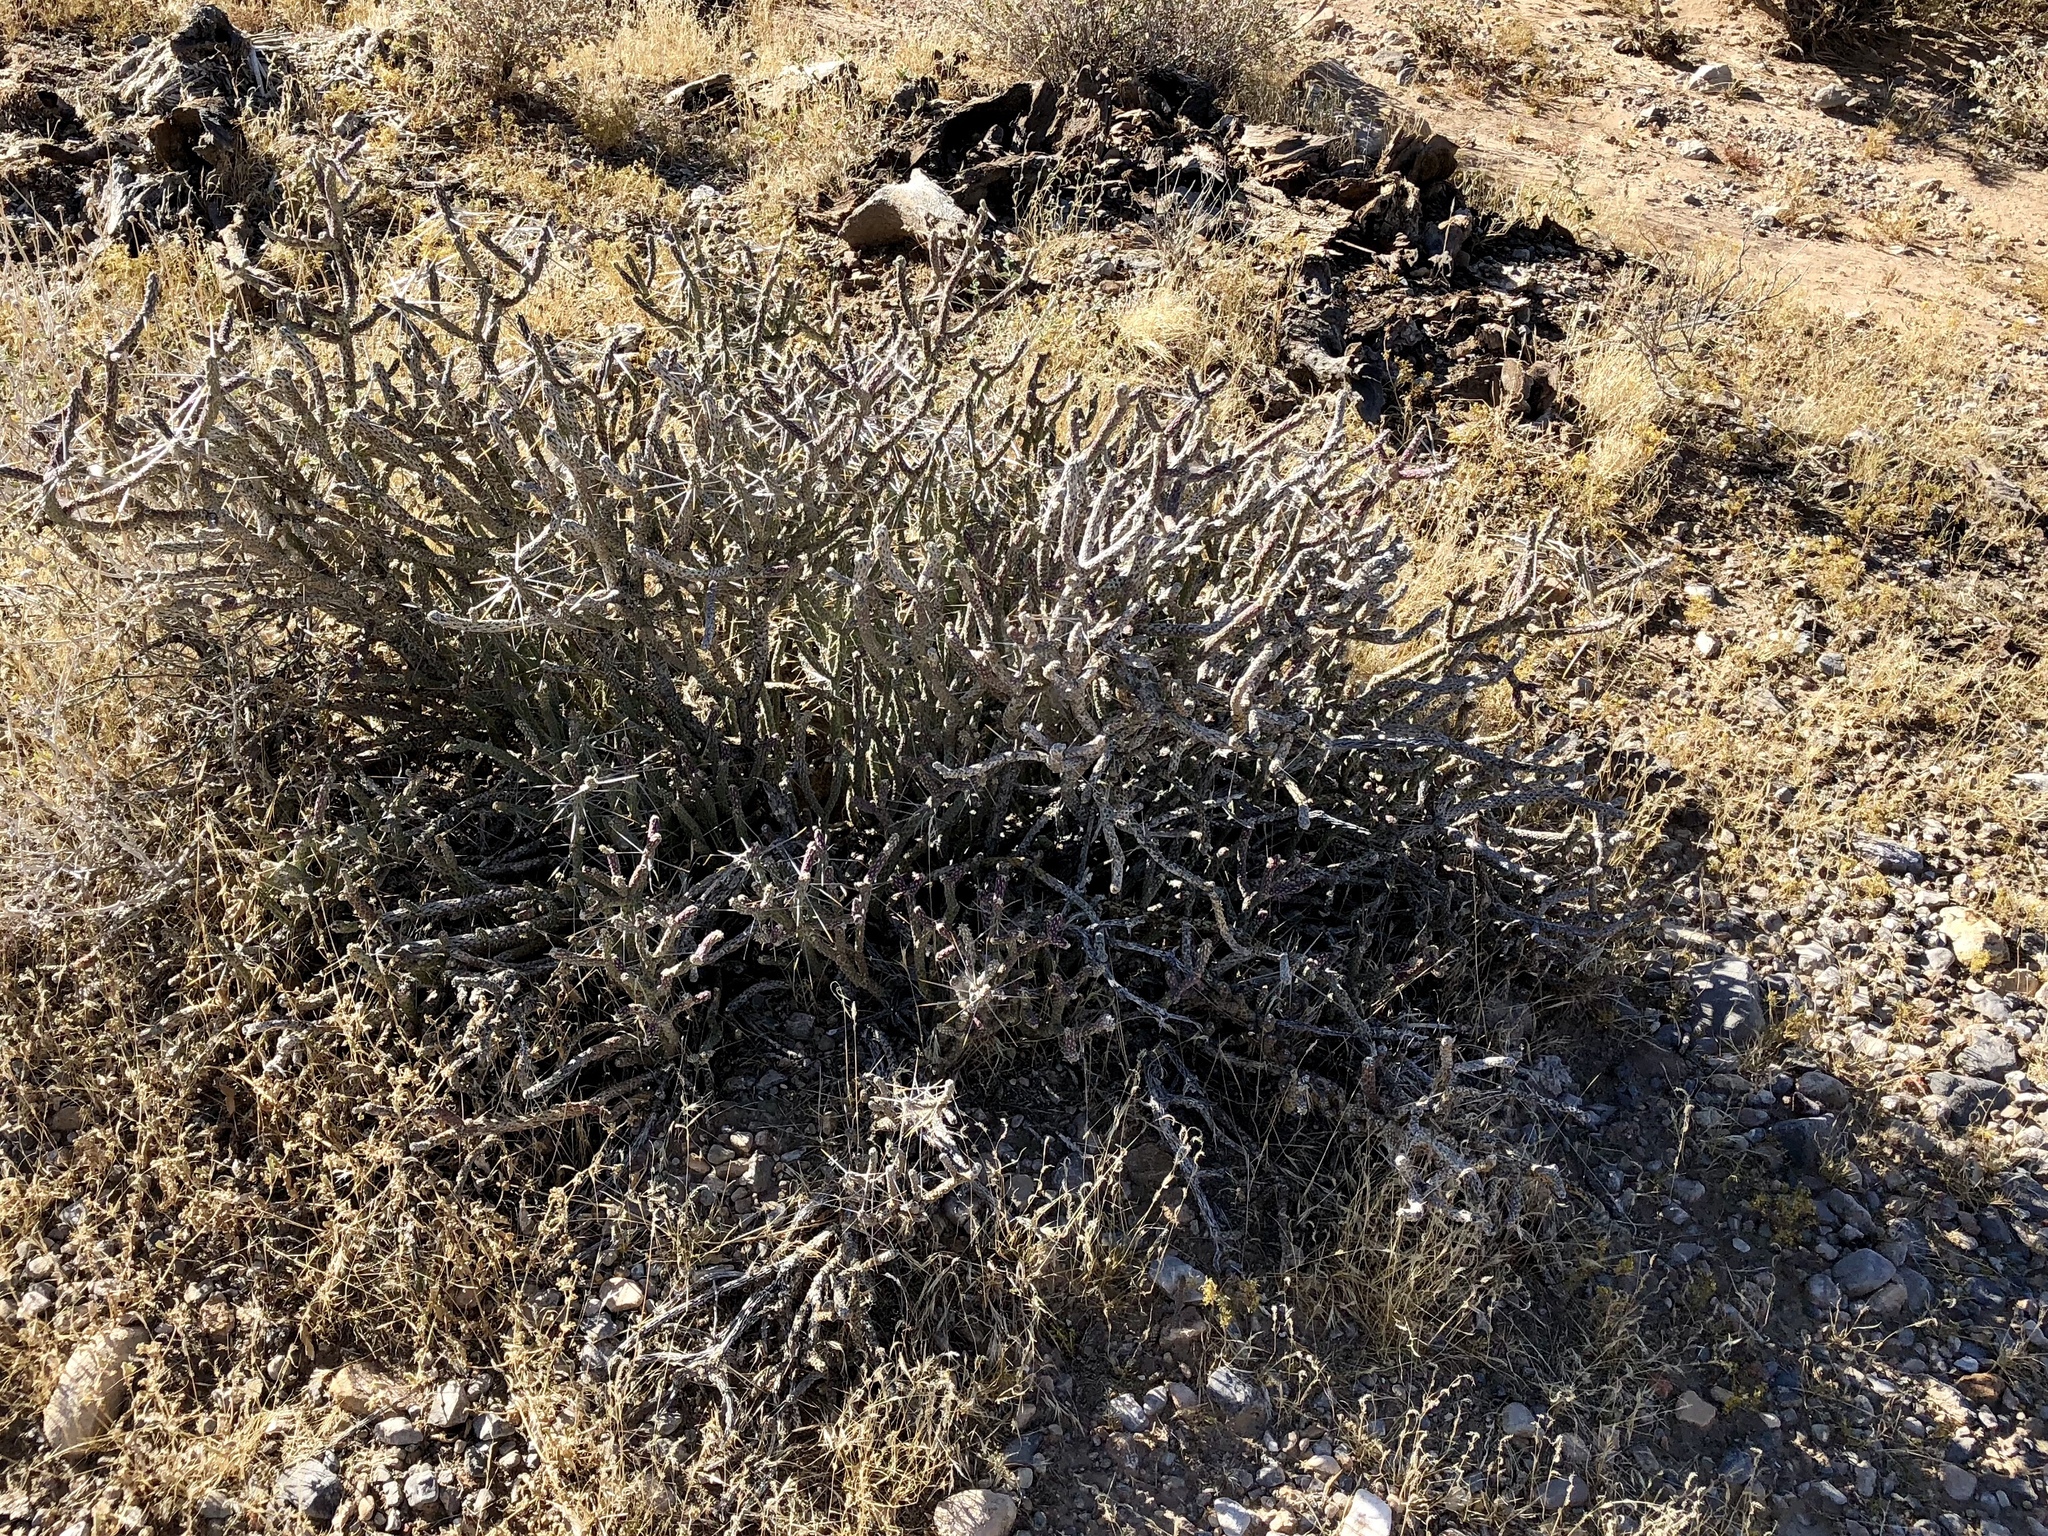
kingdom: Plantae
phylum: Tracheophyta
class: Magnoliopsida
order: Caryophyllales
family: Cactaceae
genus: Cylindropuntia
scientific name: Cylindropuntia ramosissima
